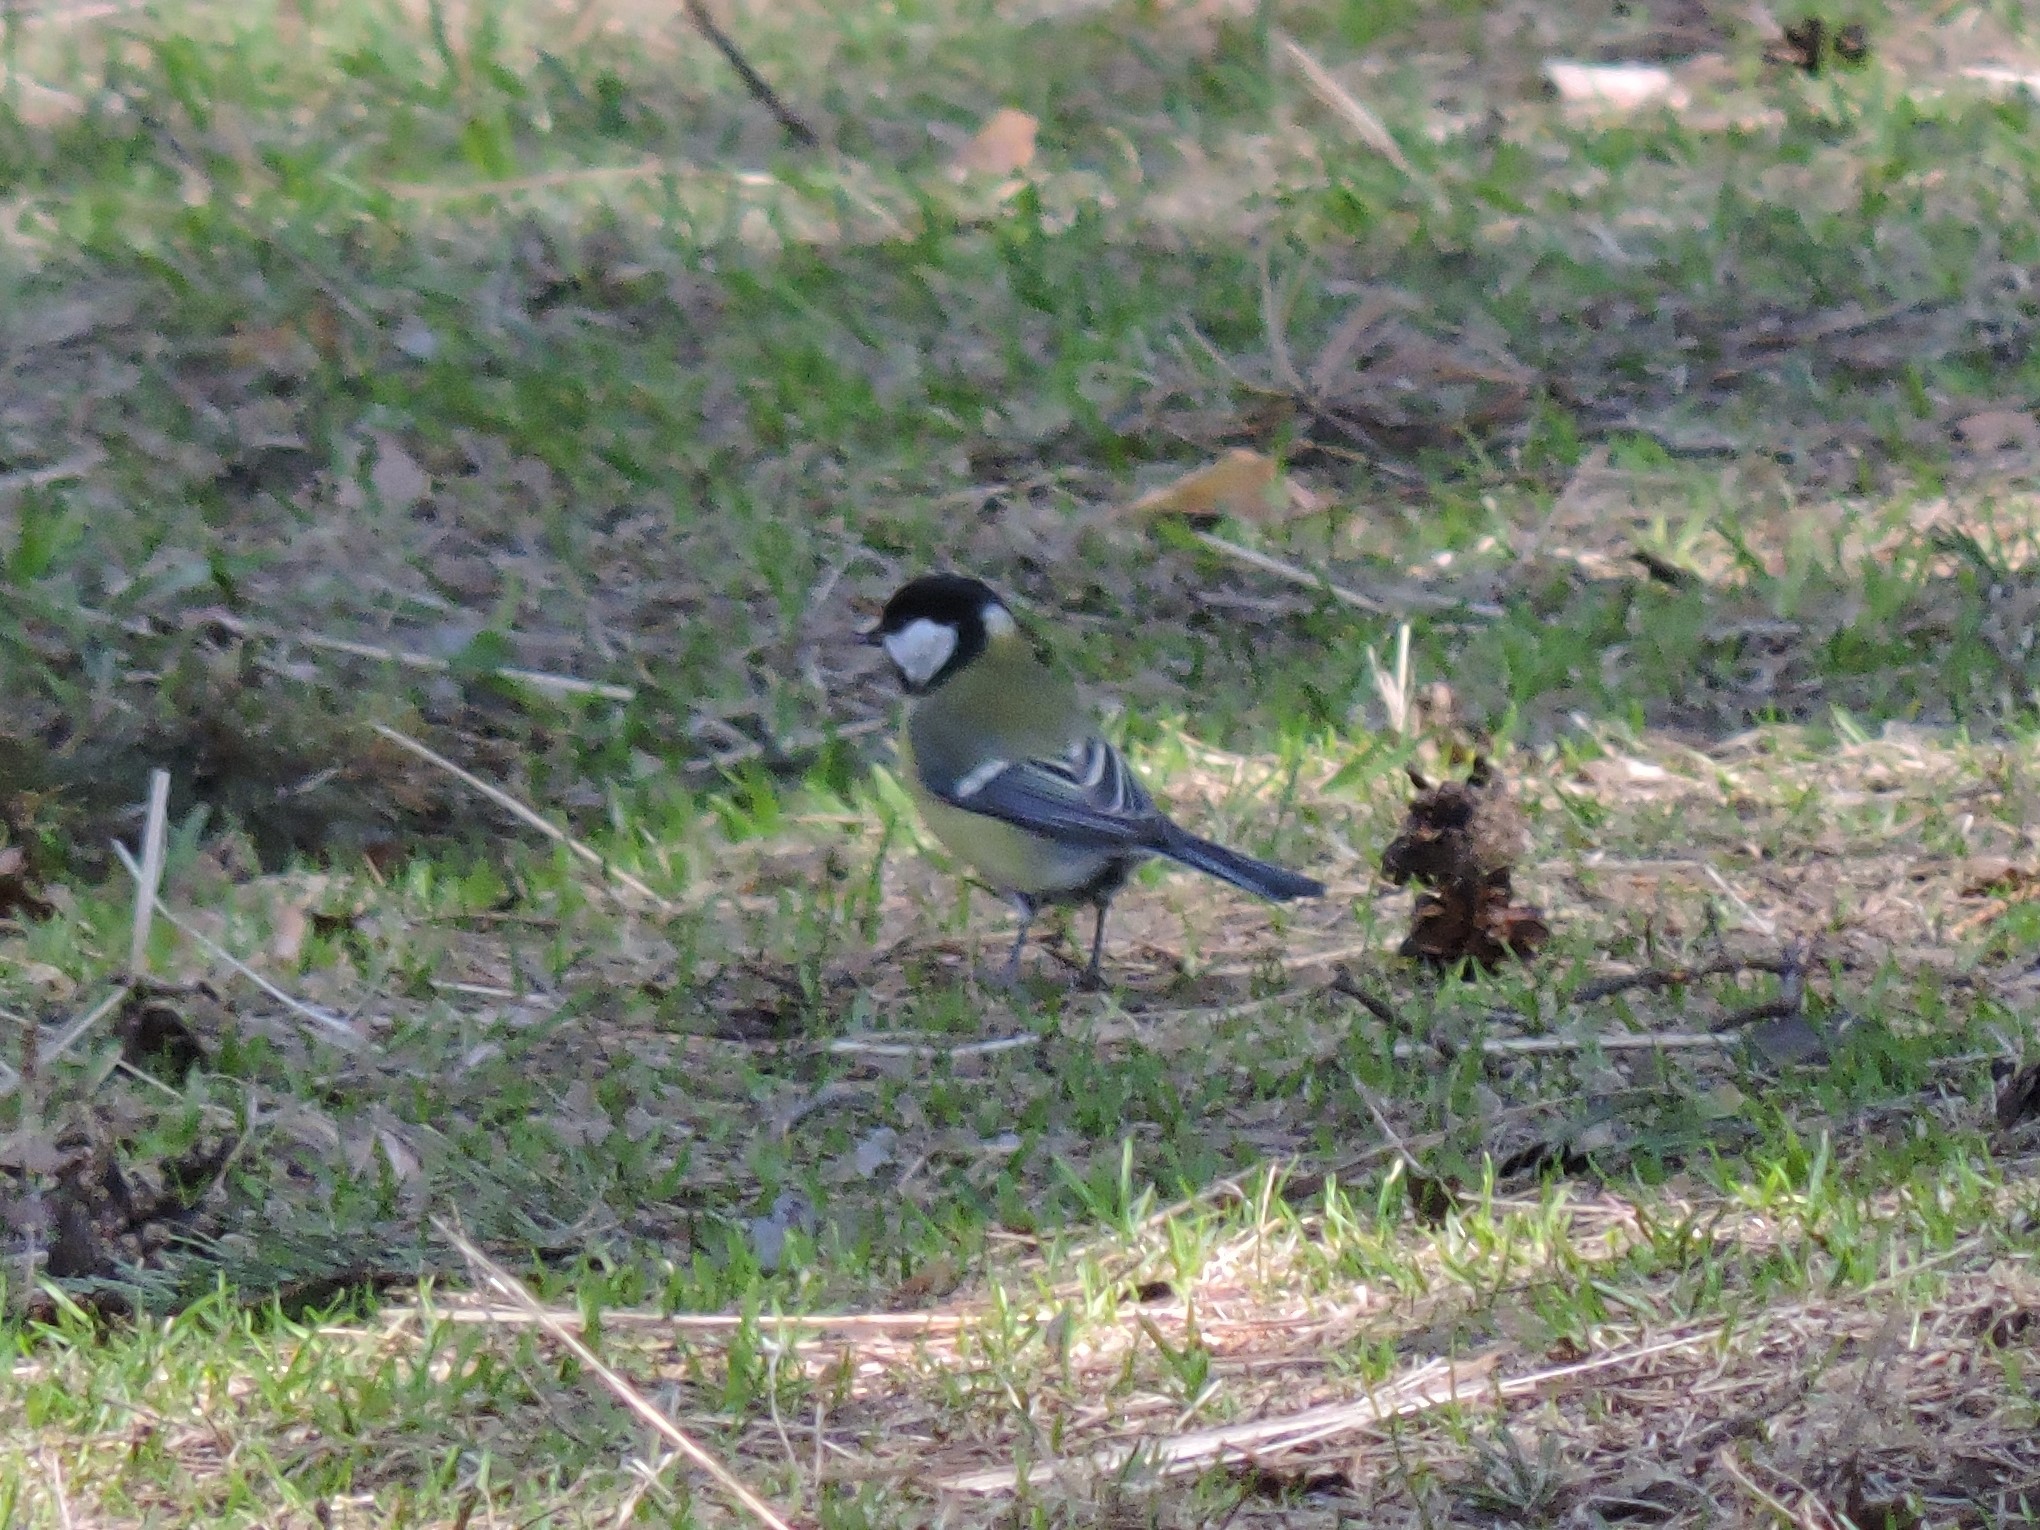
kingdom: Animalia
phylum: Chordata
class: Aves
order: Passeriformes
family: Paridae
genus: Parus
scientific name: Parus major
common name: Great tit
